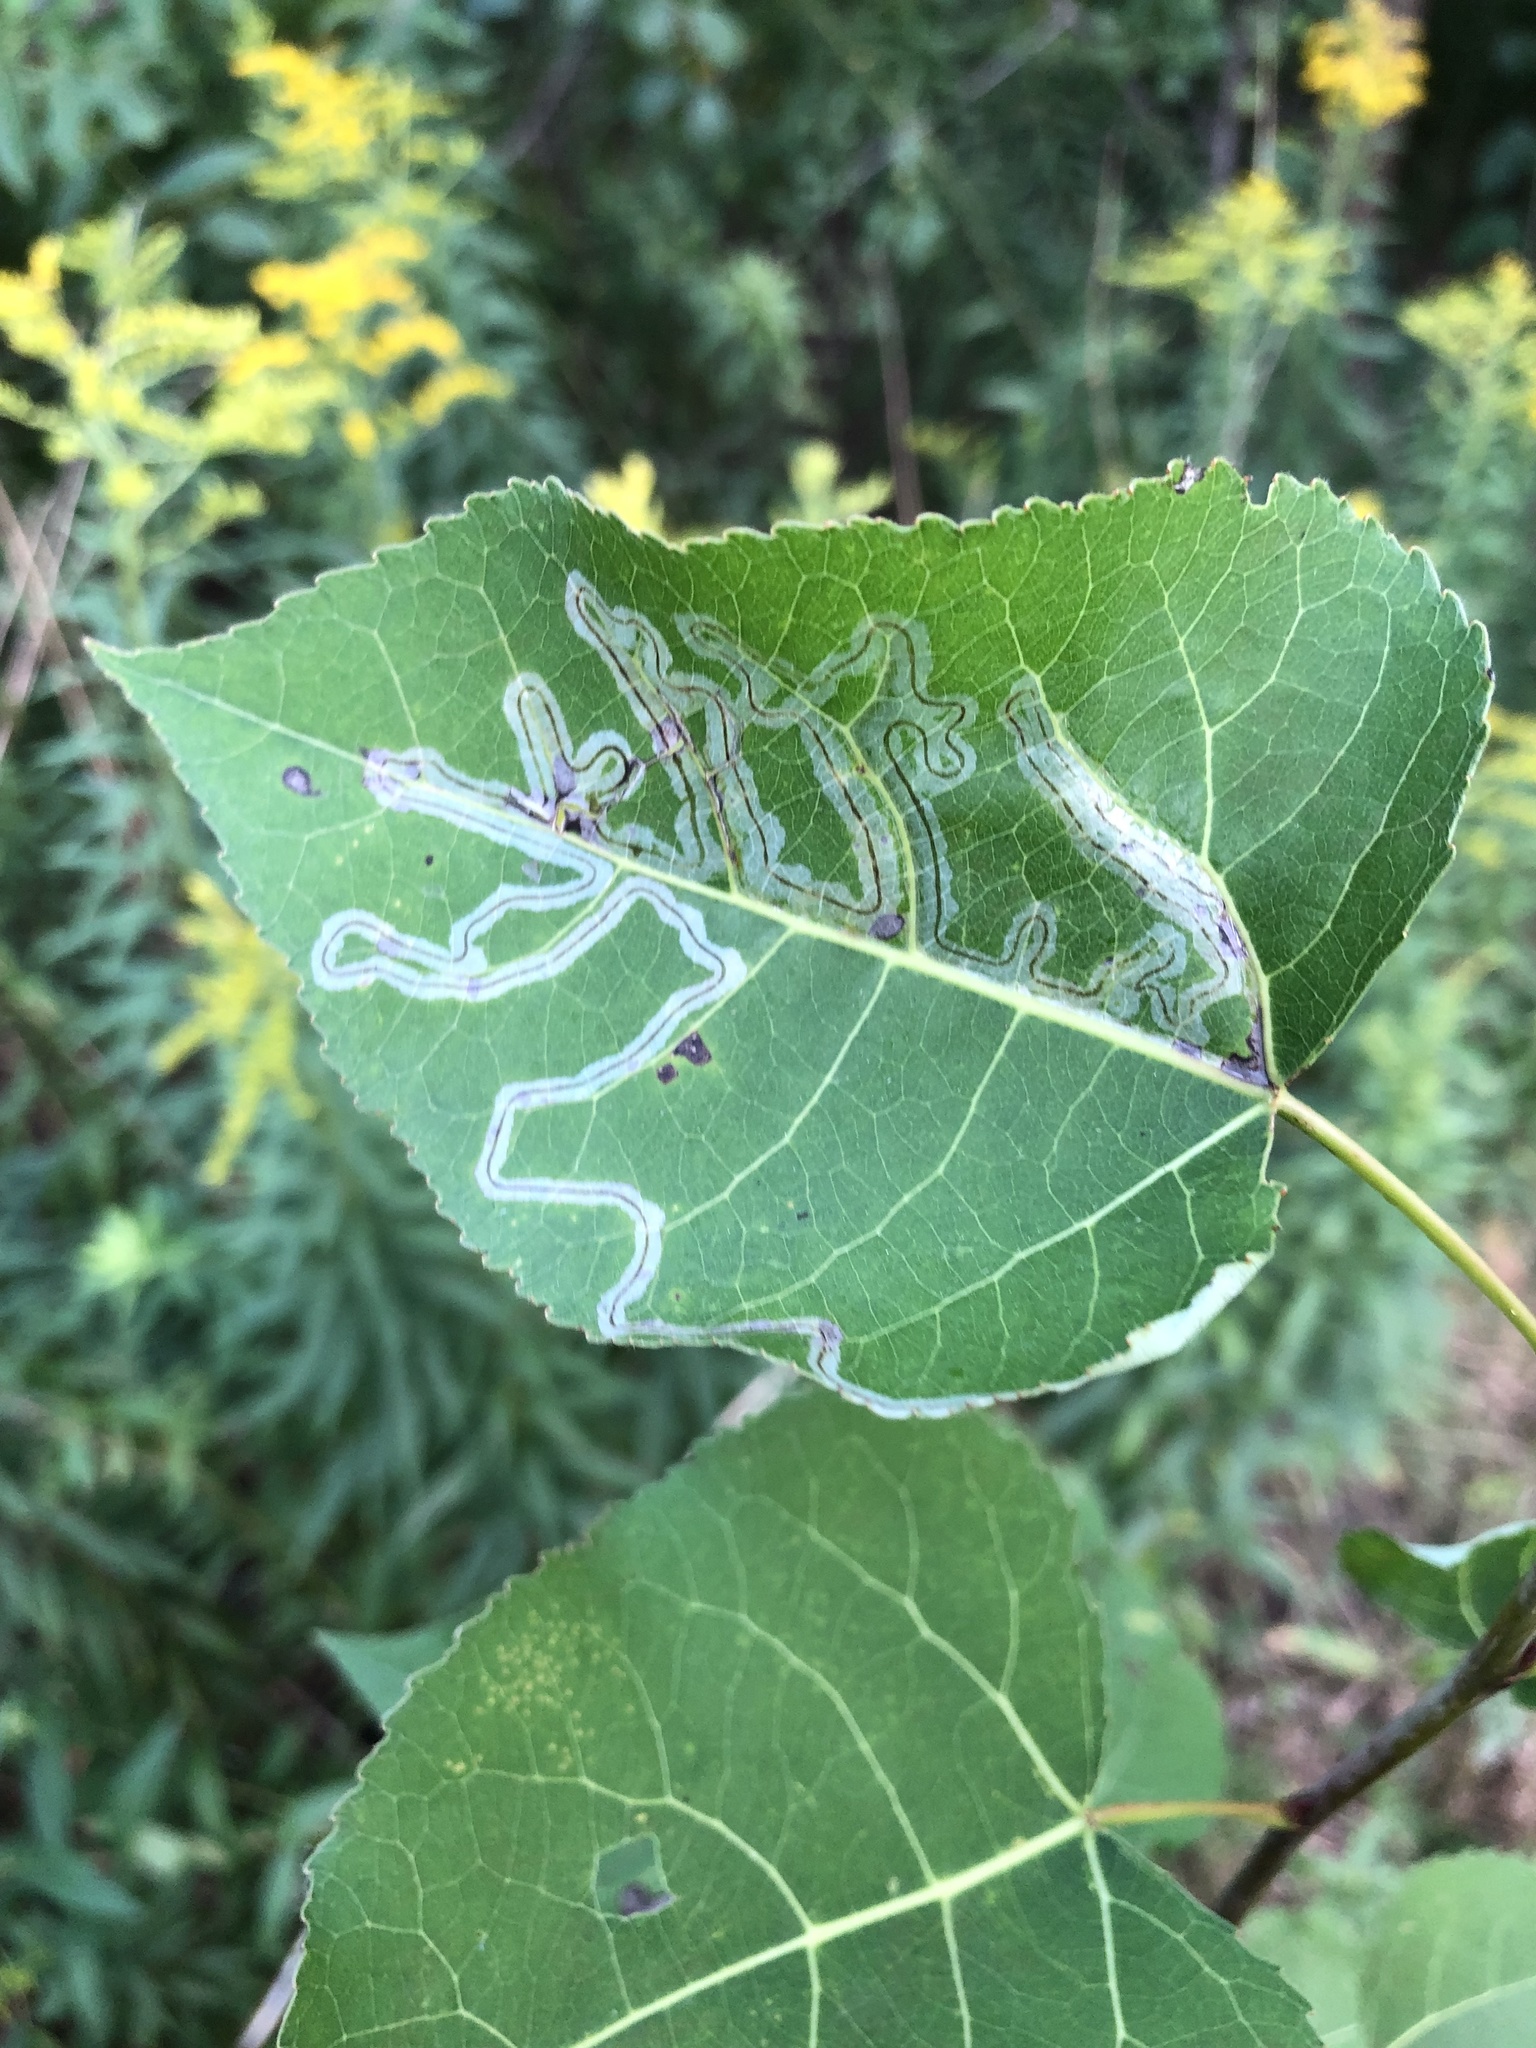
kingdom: Animalia
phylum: Arthropoda
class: Insecta
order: Lepidoptera
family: Gracillariidae
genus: Phyllocnistis
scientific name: Phyllocnistis populiella
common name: Aspen serpentine leafminer moth
